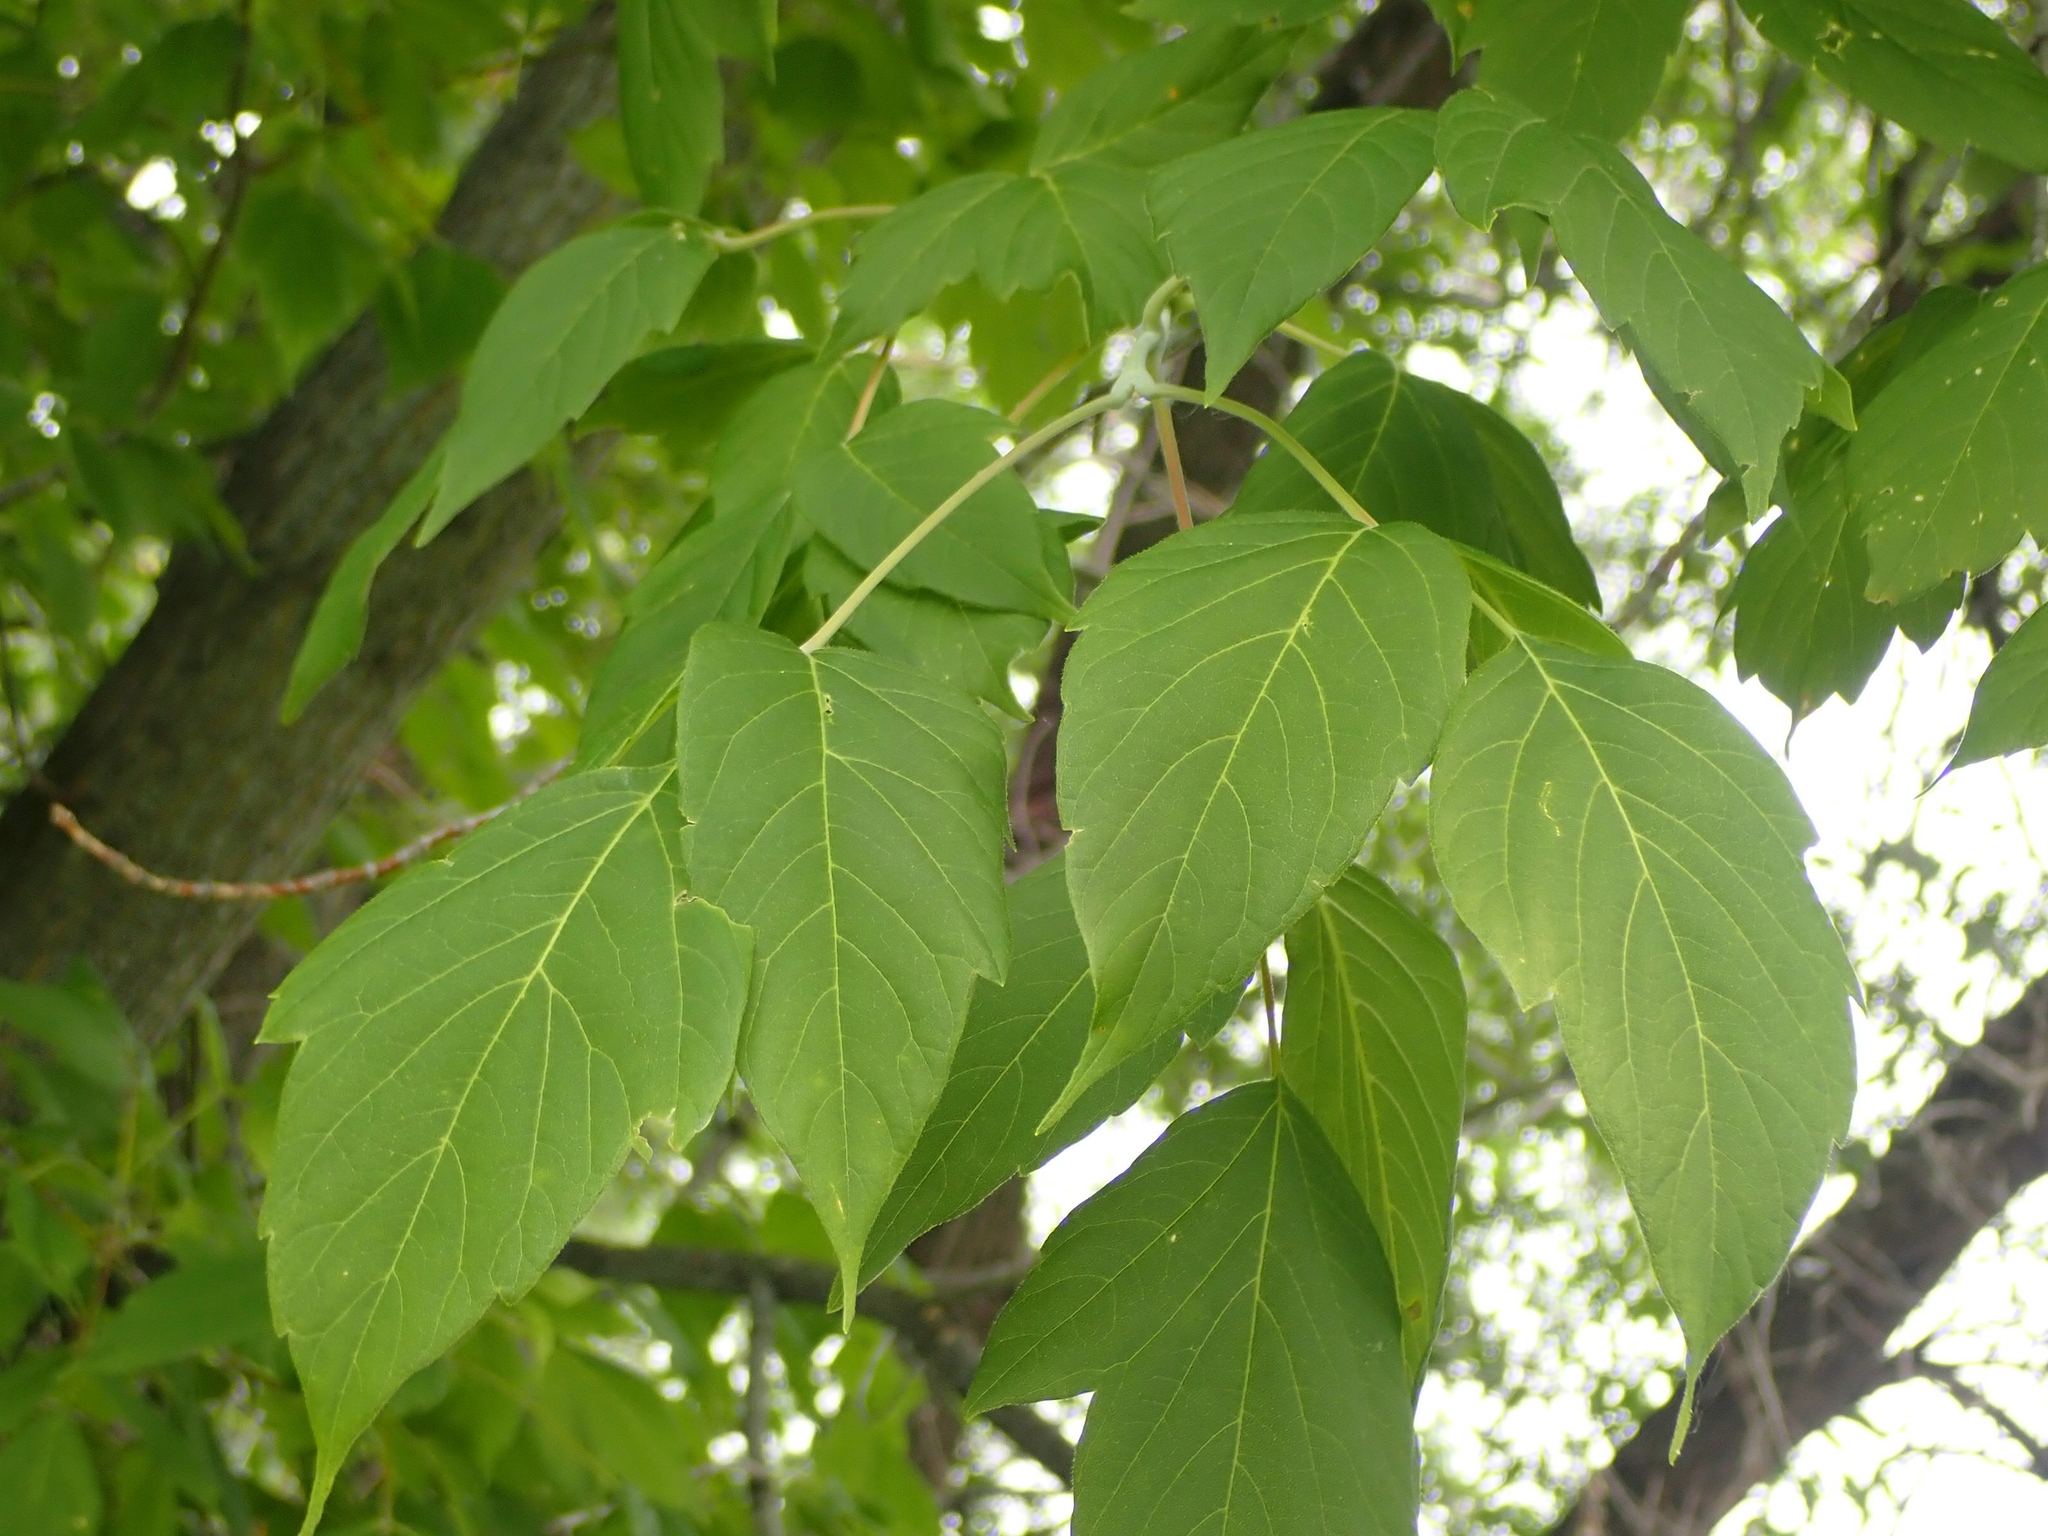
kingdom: Plantae
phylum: Tracheophyta
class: Magnoliopsida
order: Sapindales
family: Sapindaceae
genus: Acer
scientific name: Acer negundo
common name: Ashleaf maple
